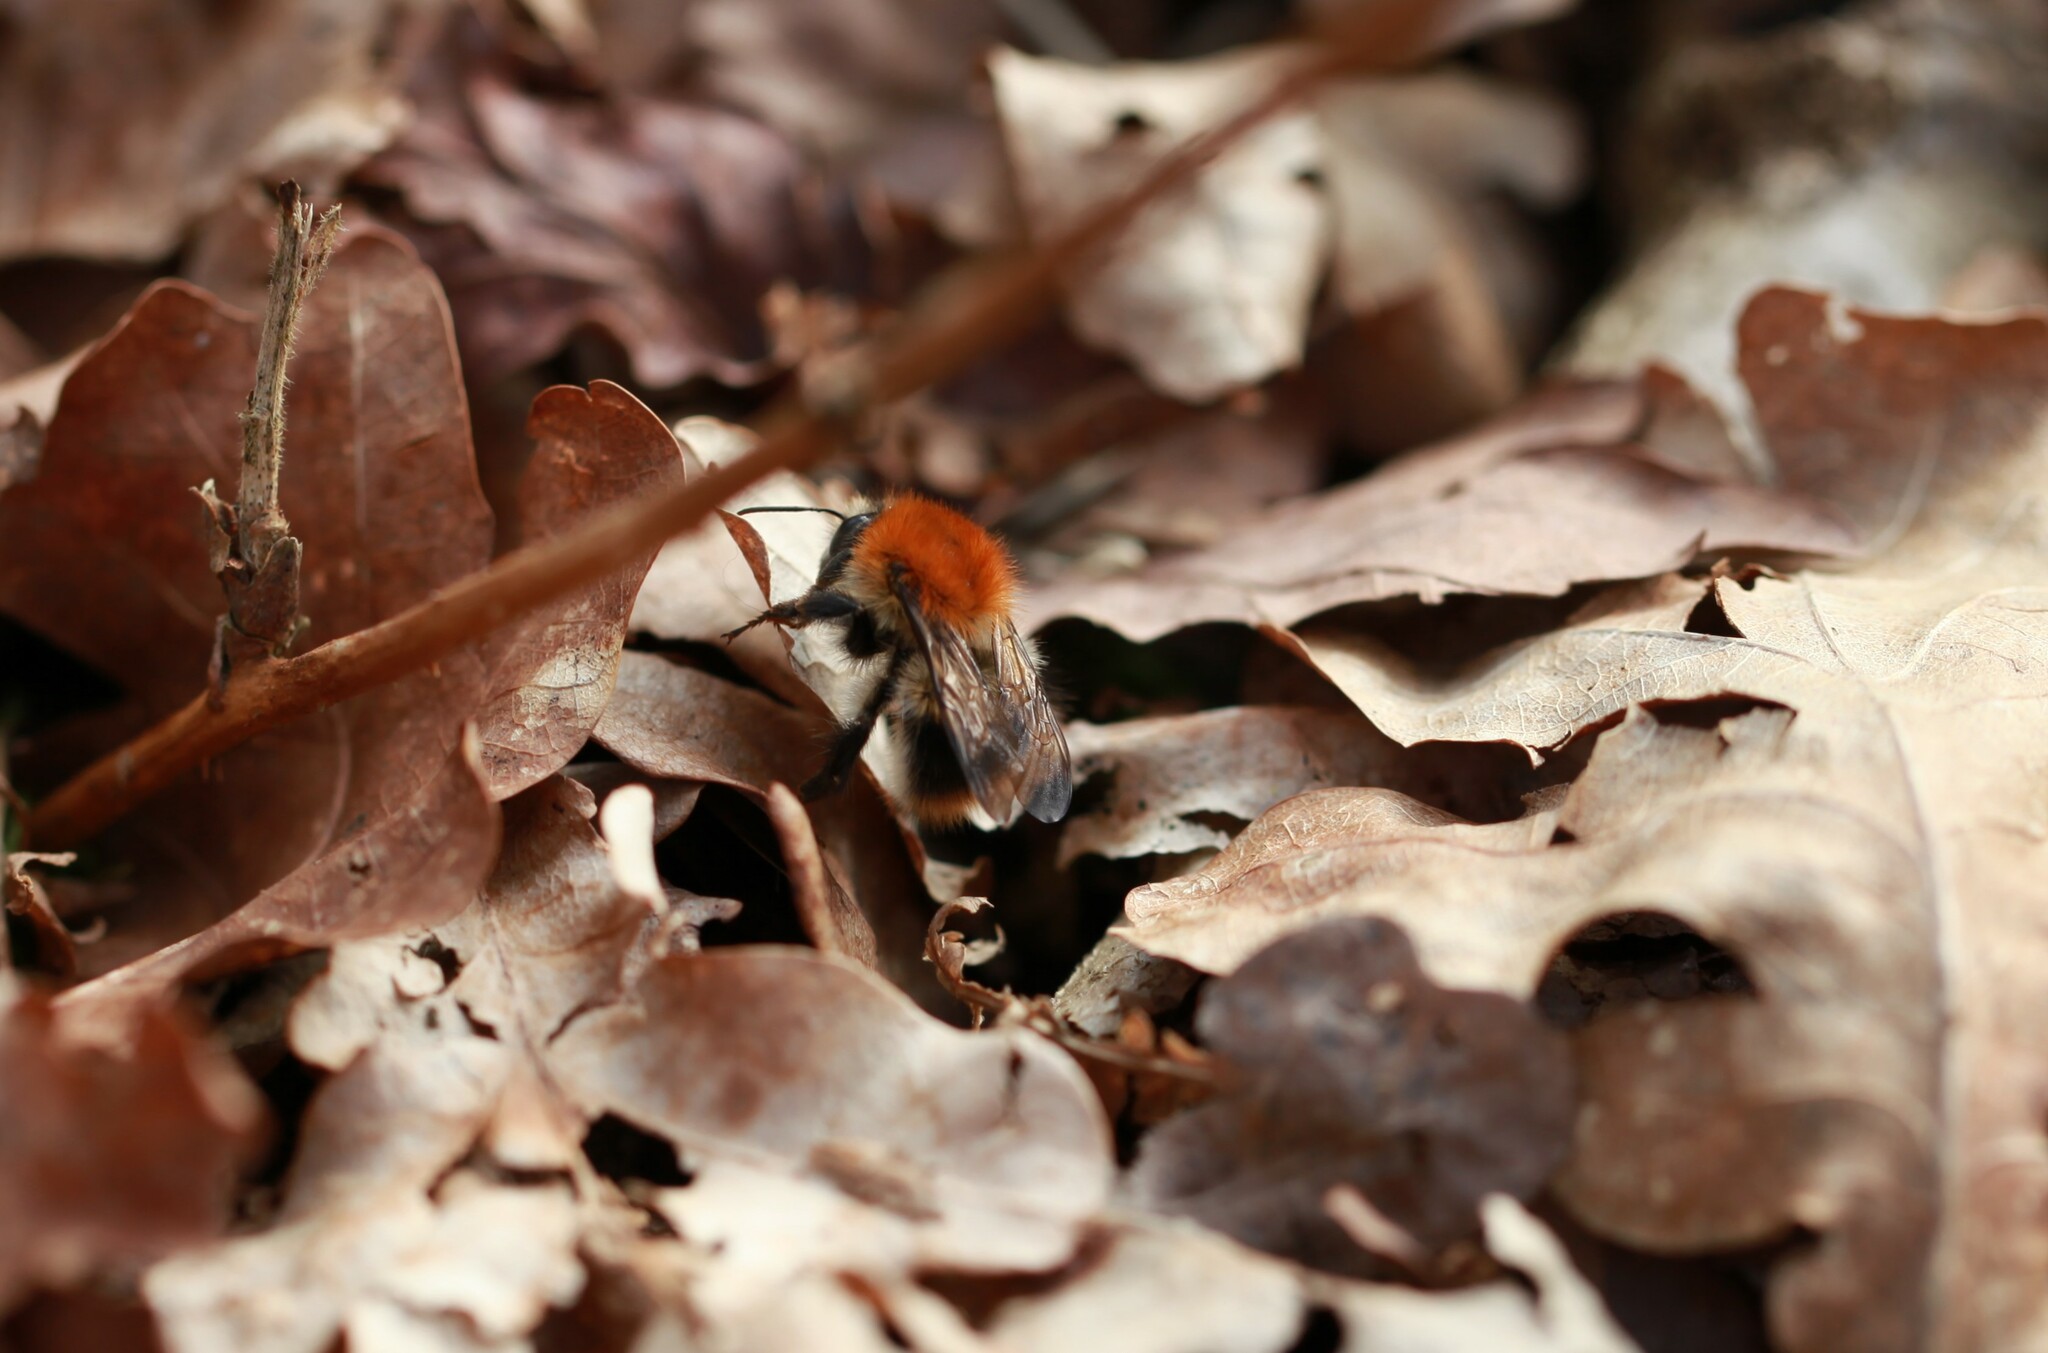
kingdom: Animalia
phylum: Arthropoda
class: Insecta
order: Hymenoptera
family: Apidae
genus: Bombus
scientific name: Bombus pascuorum
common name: Common carder bee
